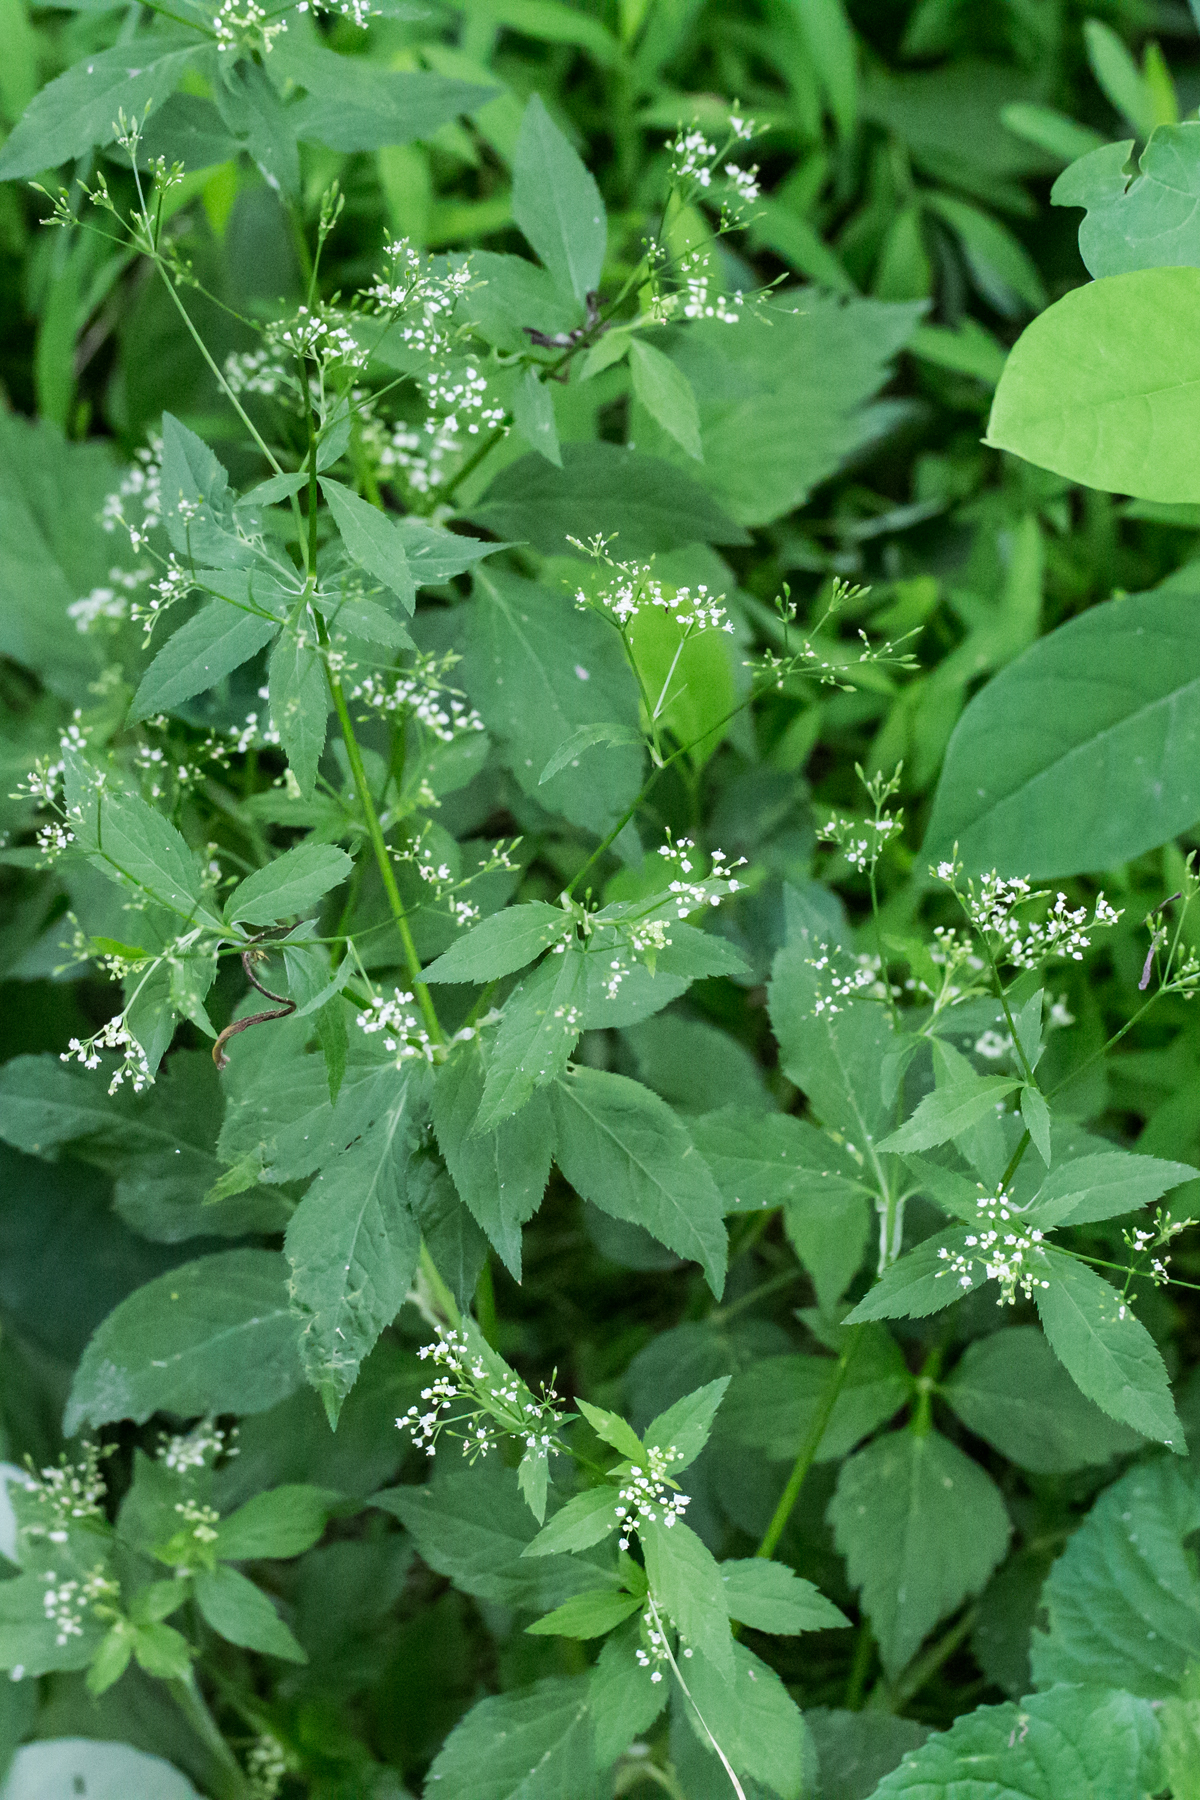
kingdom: Plantae
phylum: Tracheophyta
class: Magnoliopsida
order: Apiales
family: Apiaceae
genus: Cryptotaenia
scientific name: Cryptotaenia canadensis
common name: Honewort
